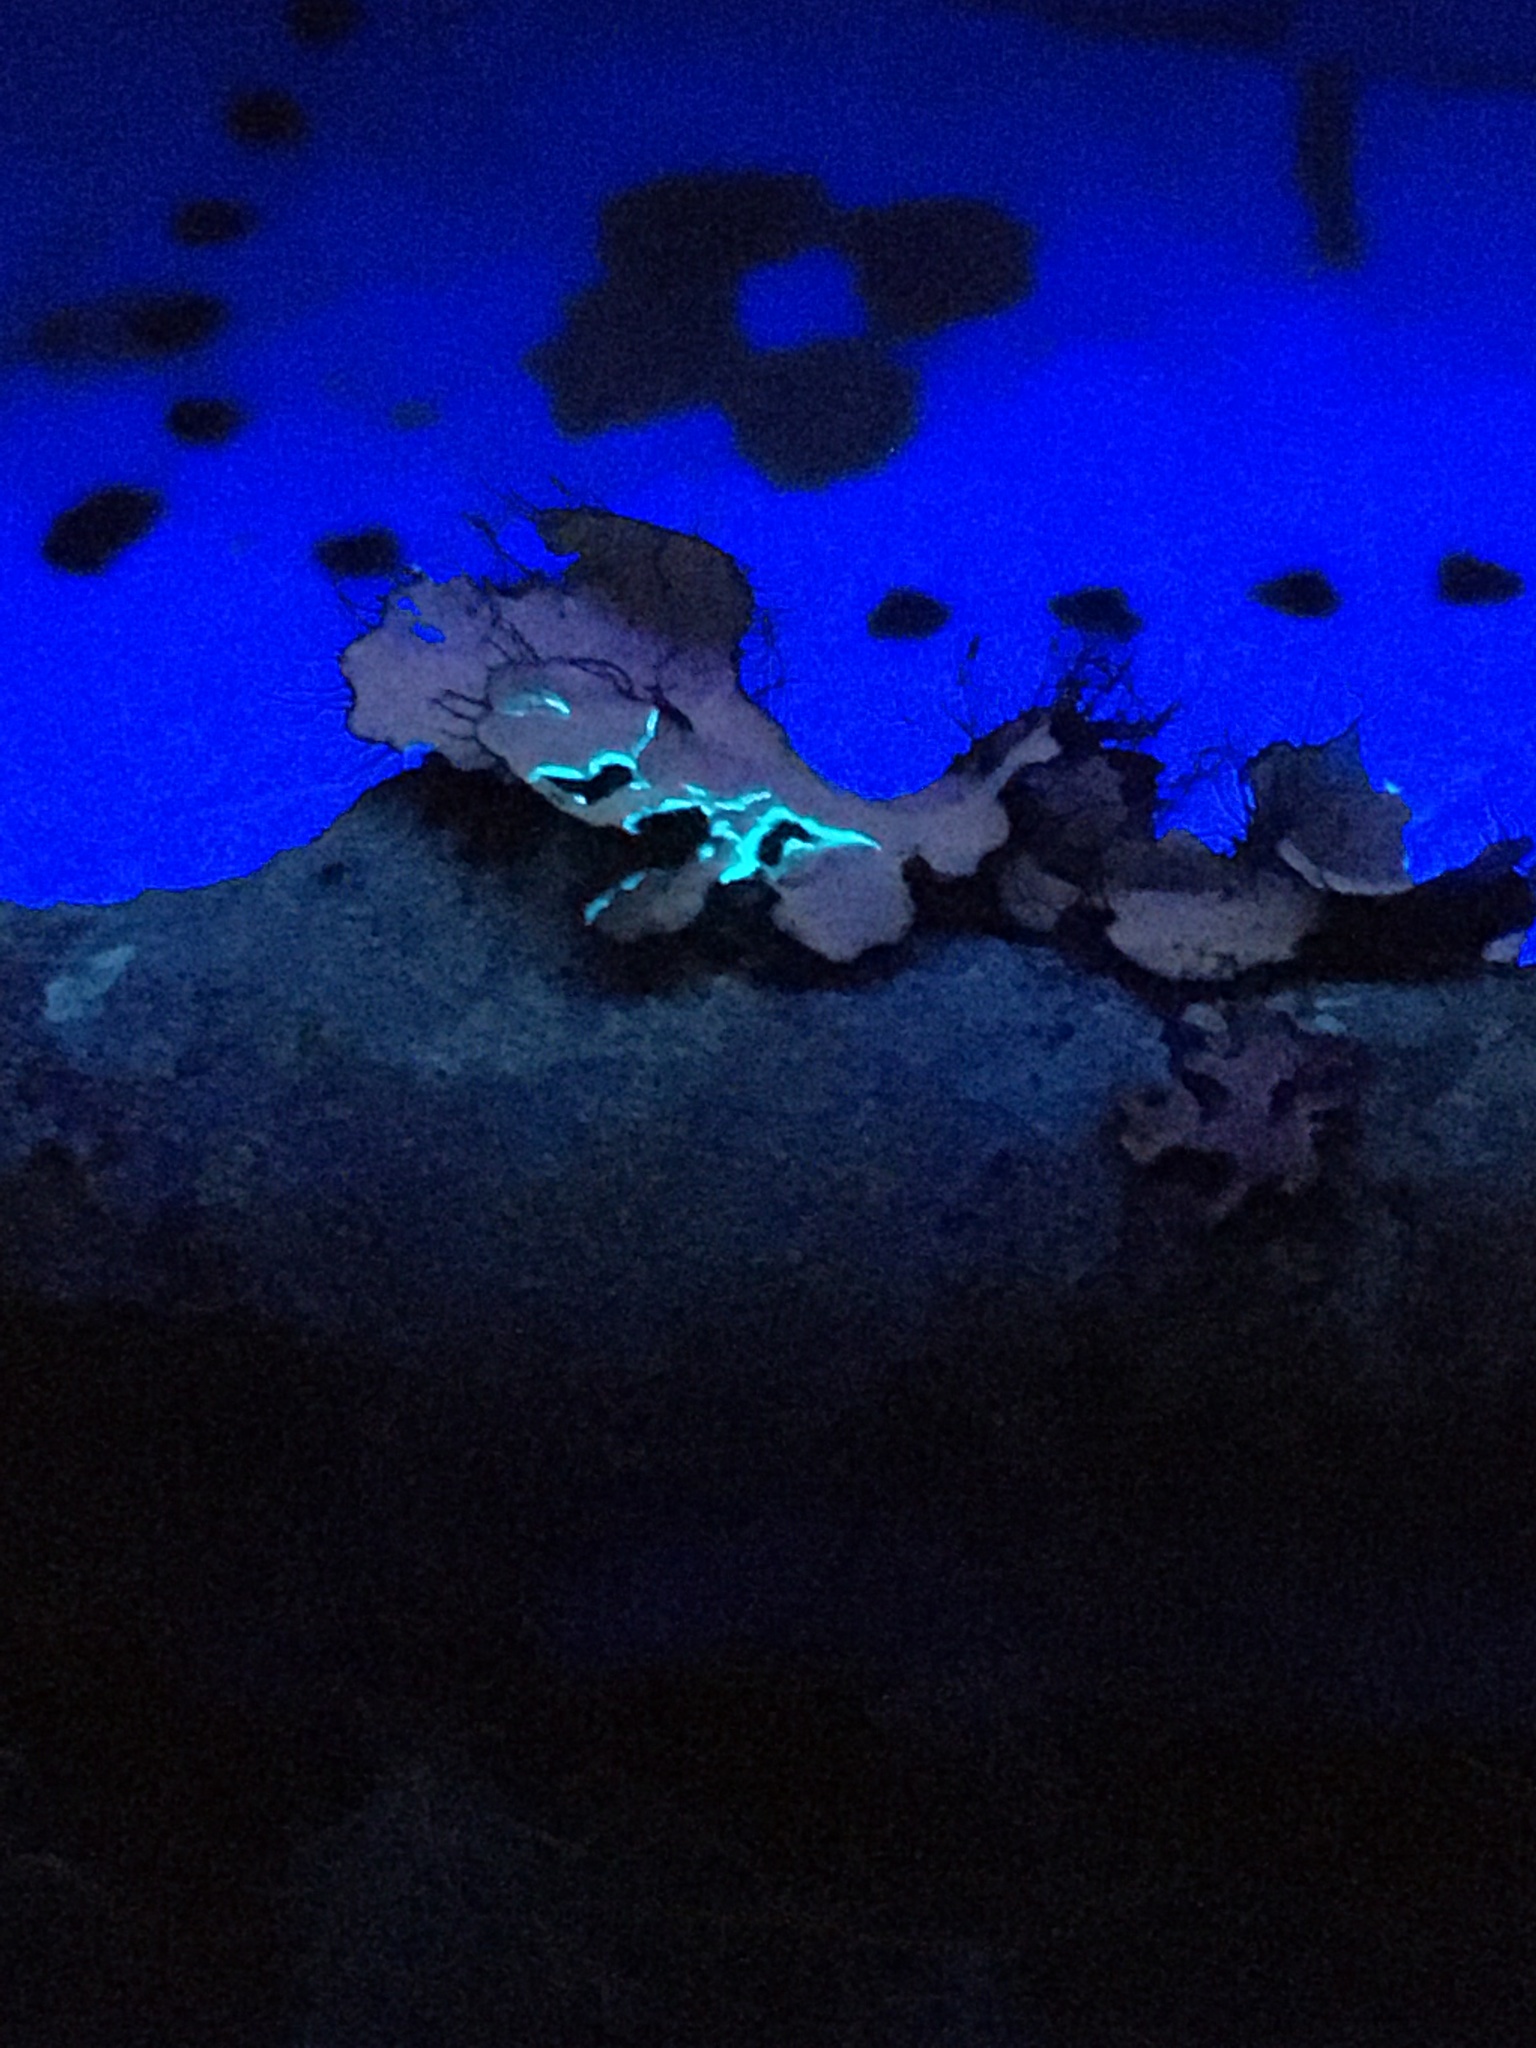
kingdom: Fungi
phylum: Ascomycota
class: Lecanoromycetes
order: Lecanorales
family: Parmeliaceae
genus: Parmotrema
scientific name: Parmotrema arnoldii
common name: Arnold's parmotrema lichen
